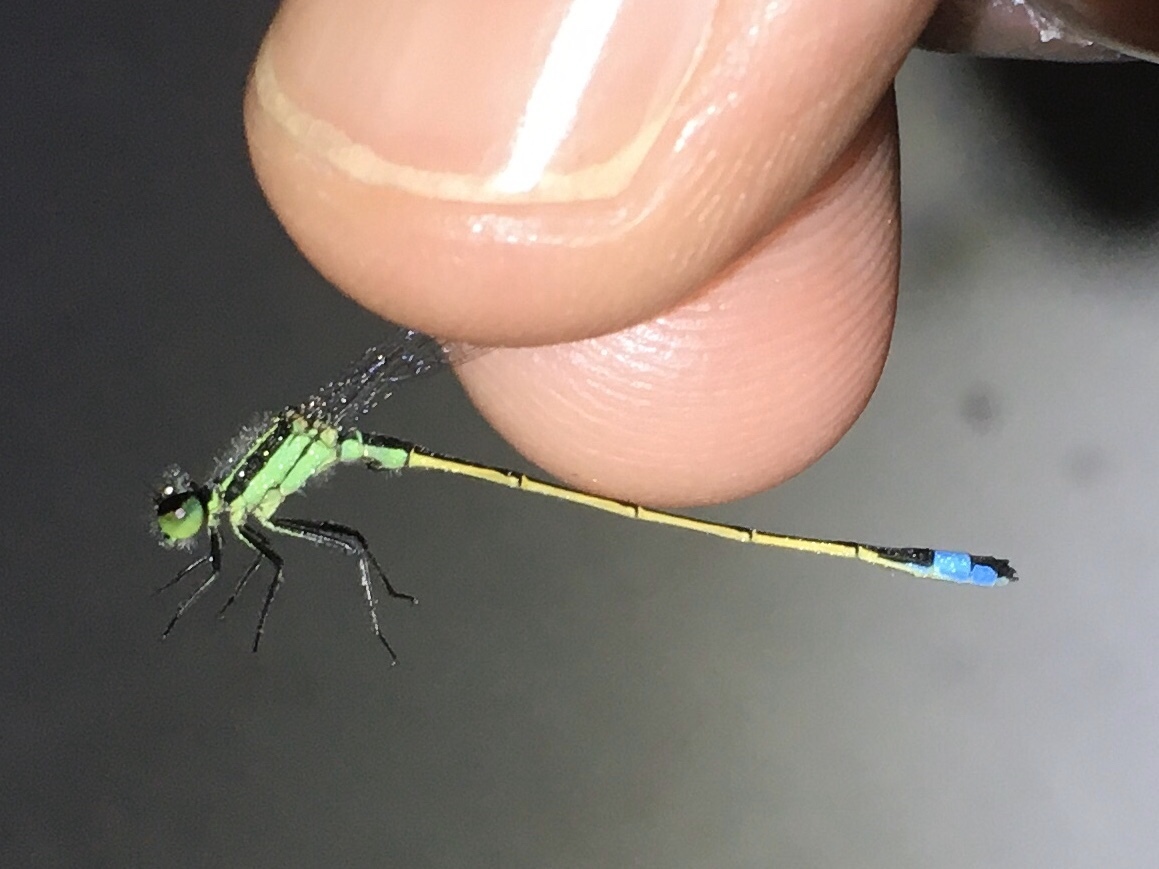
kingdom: Animalia
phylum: Arthropoda
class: Insecta
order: Odonata
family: Coenagrionidae
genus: Ischnura
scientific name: Ischnura ramburii
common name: Rambur's forktail
